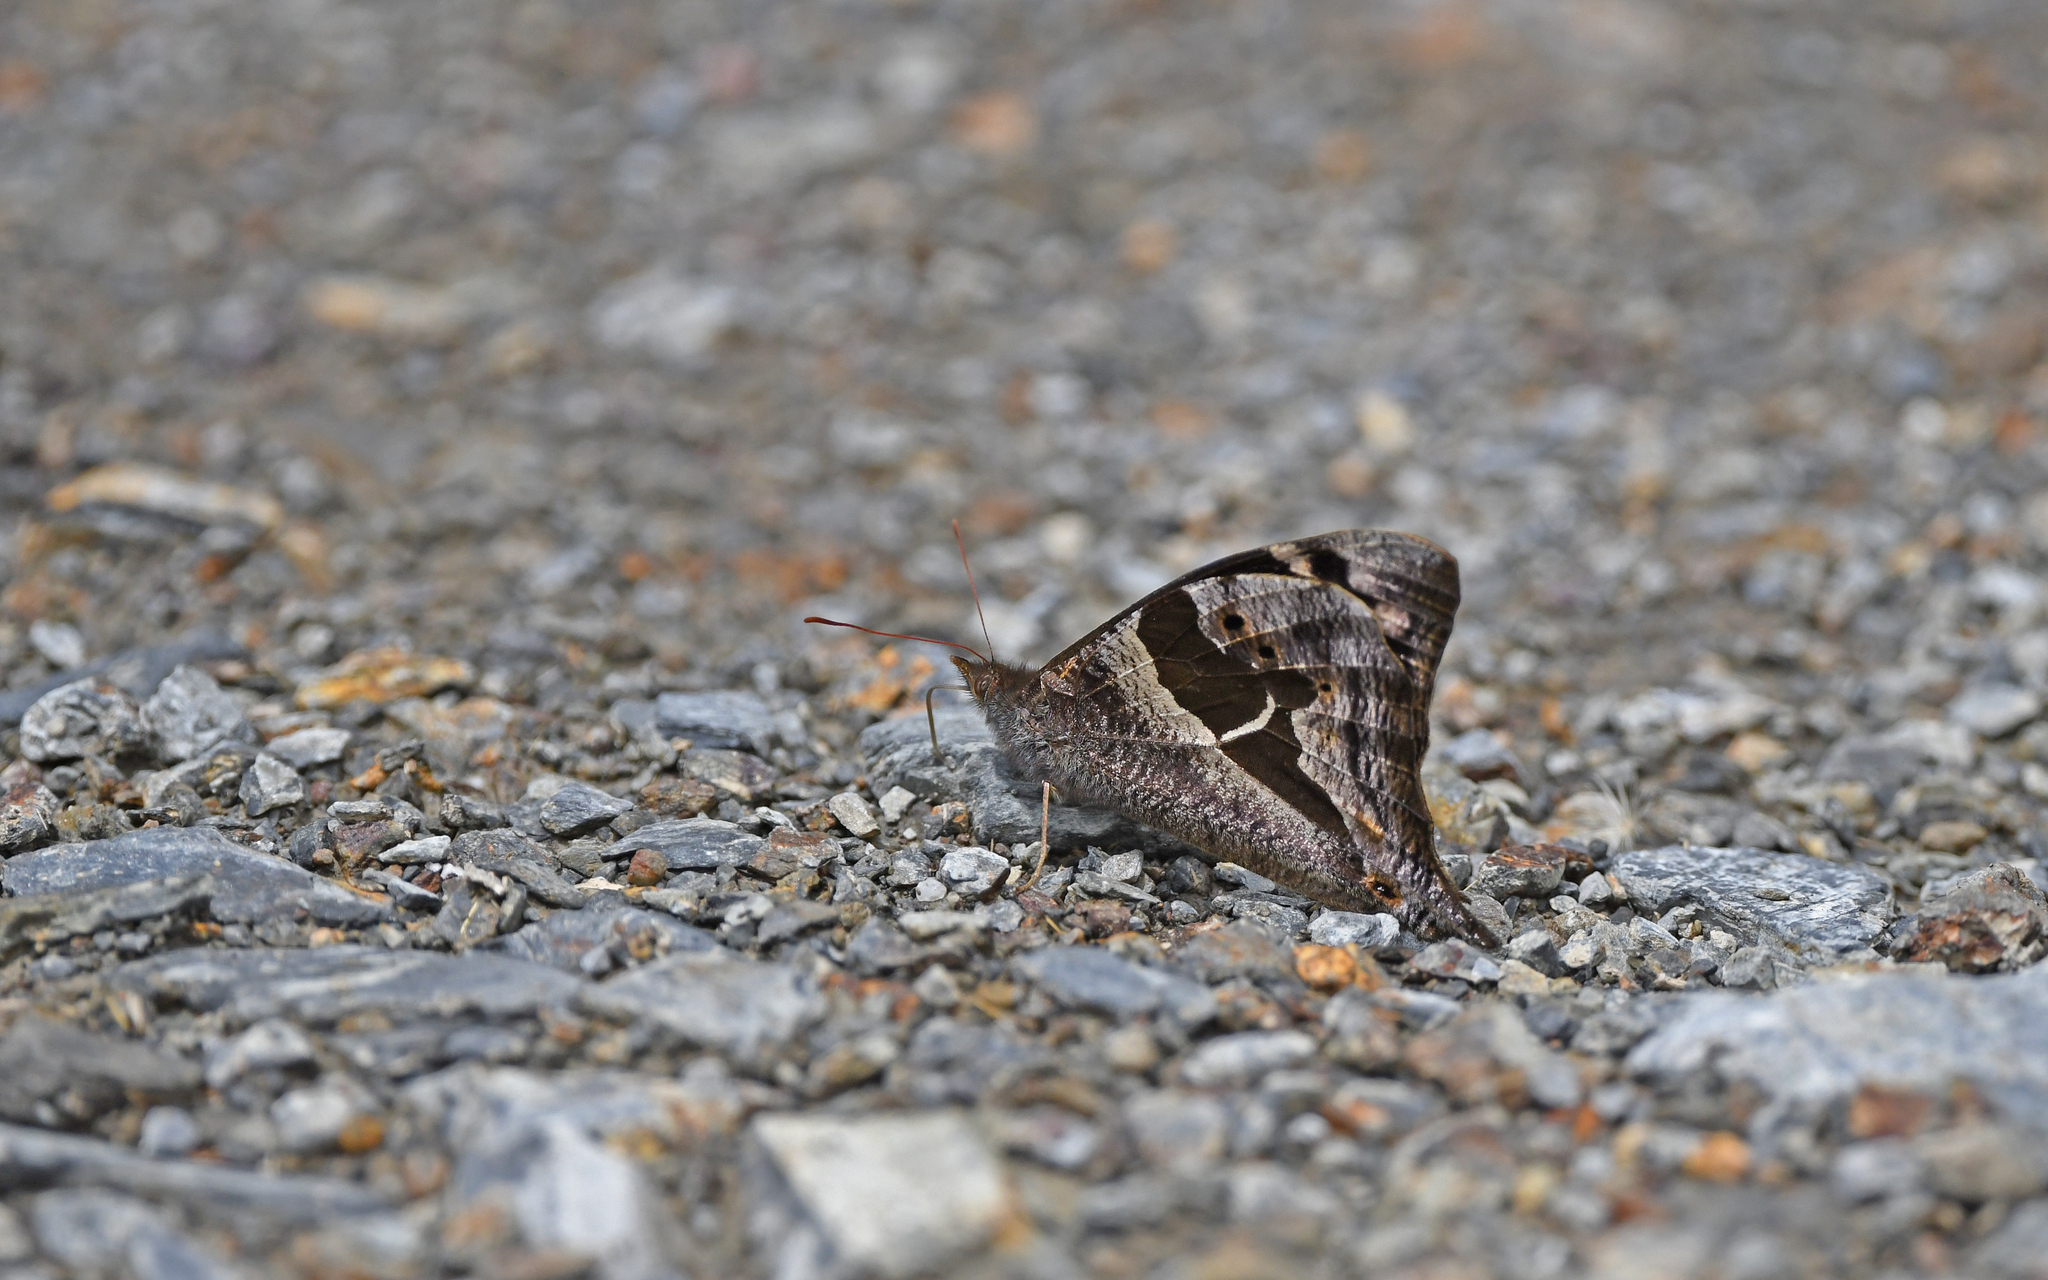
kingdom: Animalia
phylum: Arthropoda
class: Insecta
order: Lepidoptera
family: Nymphalidae
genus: Corades
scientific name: Corades cistene
